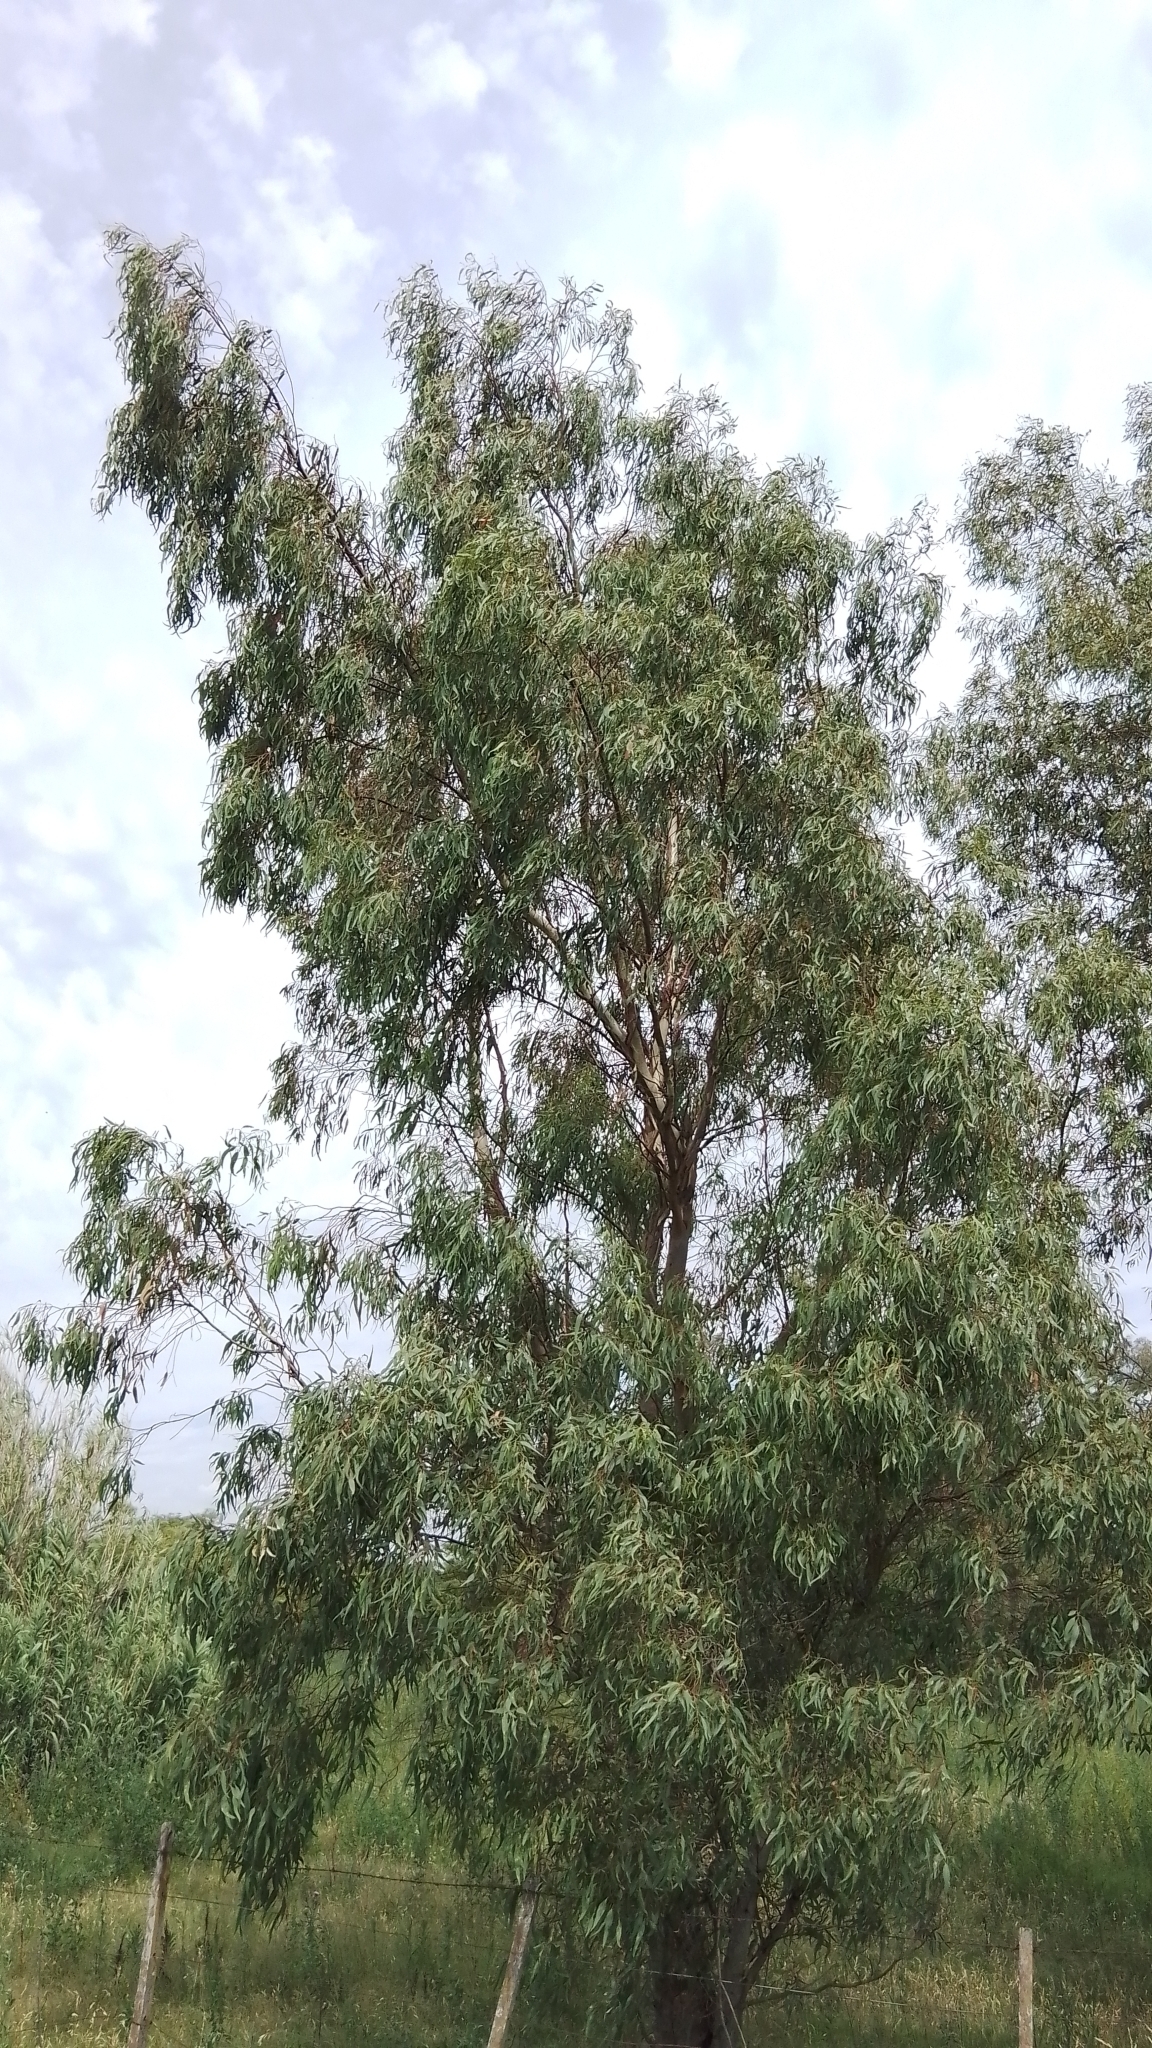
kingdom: Plantae
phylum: Tracheophyta
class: Magnoliopsida
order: Myrtales
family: Myrtaceae
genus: Eucalyptus
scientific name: Eucalyptus camaldulensis
